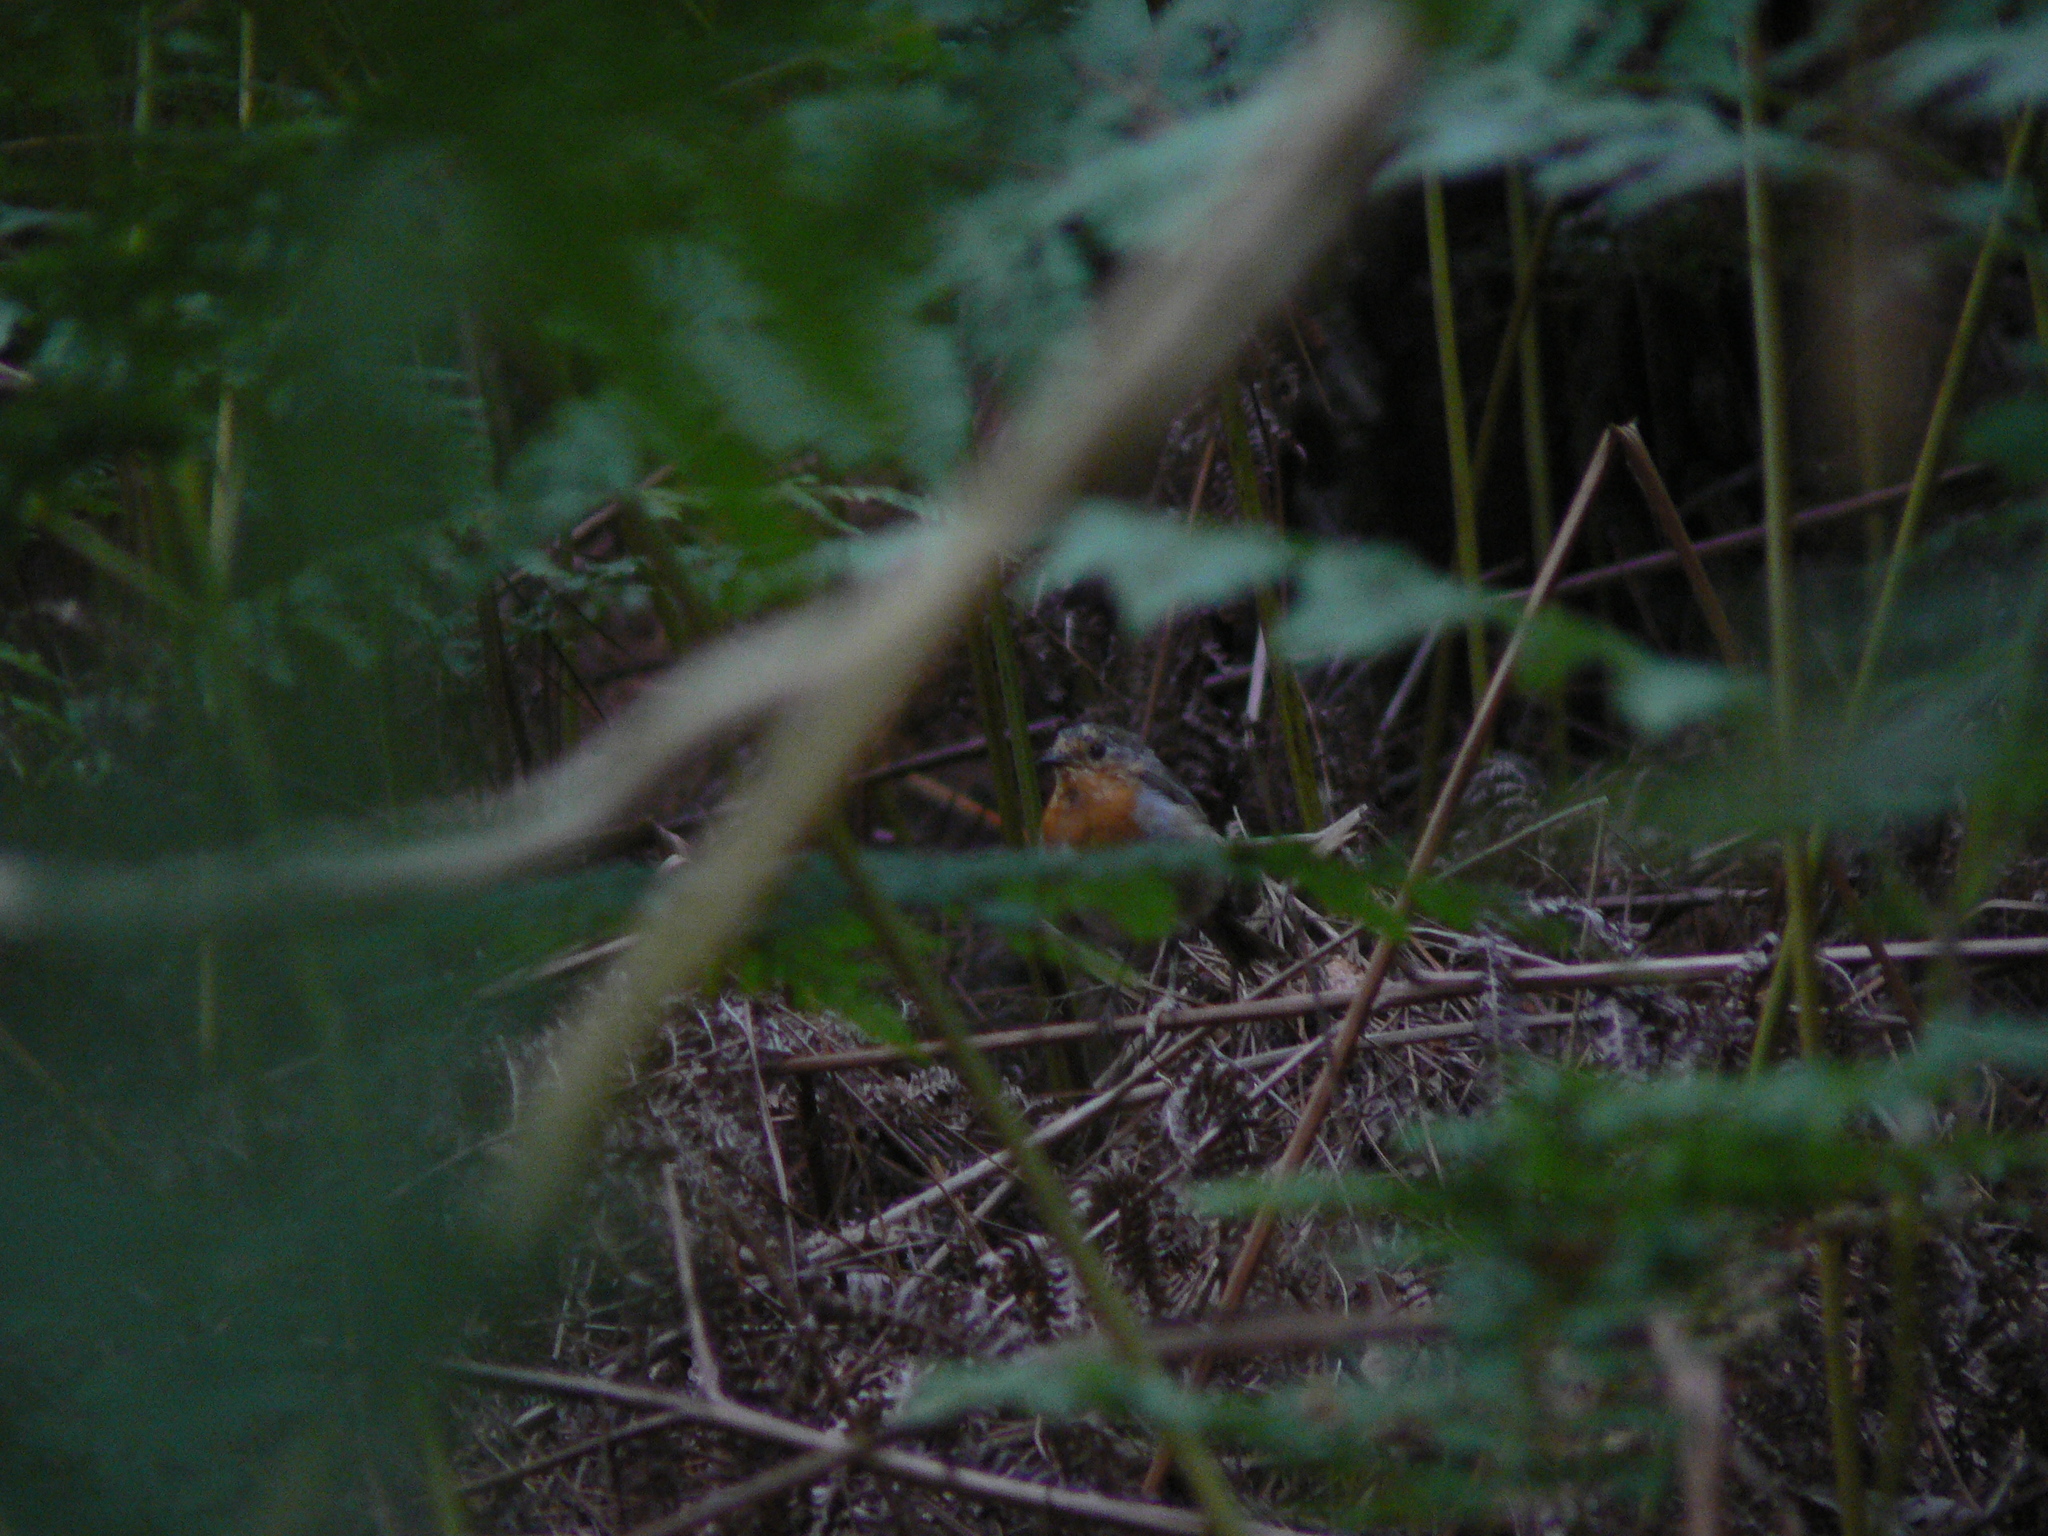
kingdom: Animalia
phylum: Chordata
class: Aves
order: Passeriformes
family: Muscicapidae
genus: Erithacus
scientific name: Erithacus rubecula
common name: European robin
